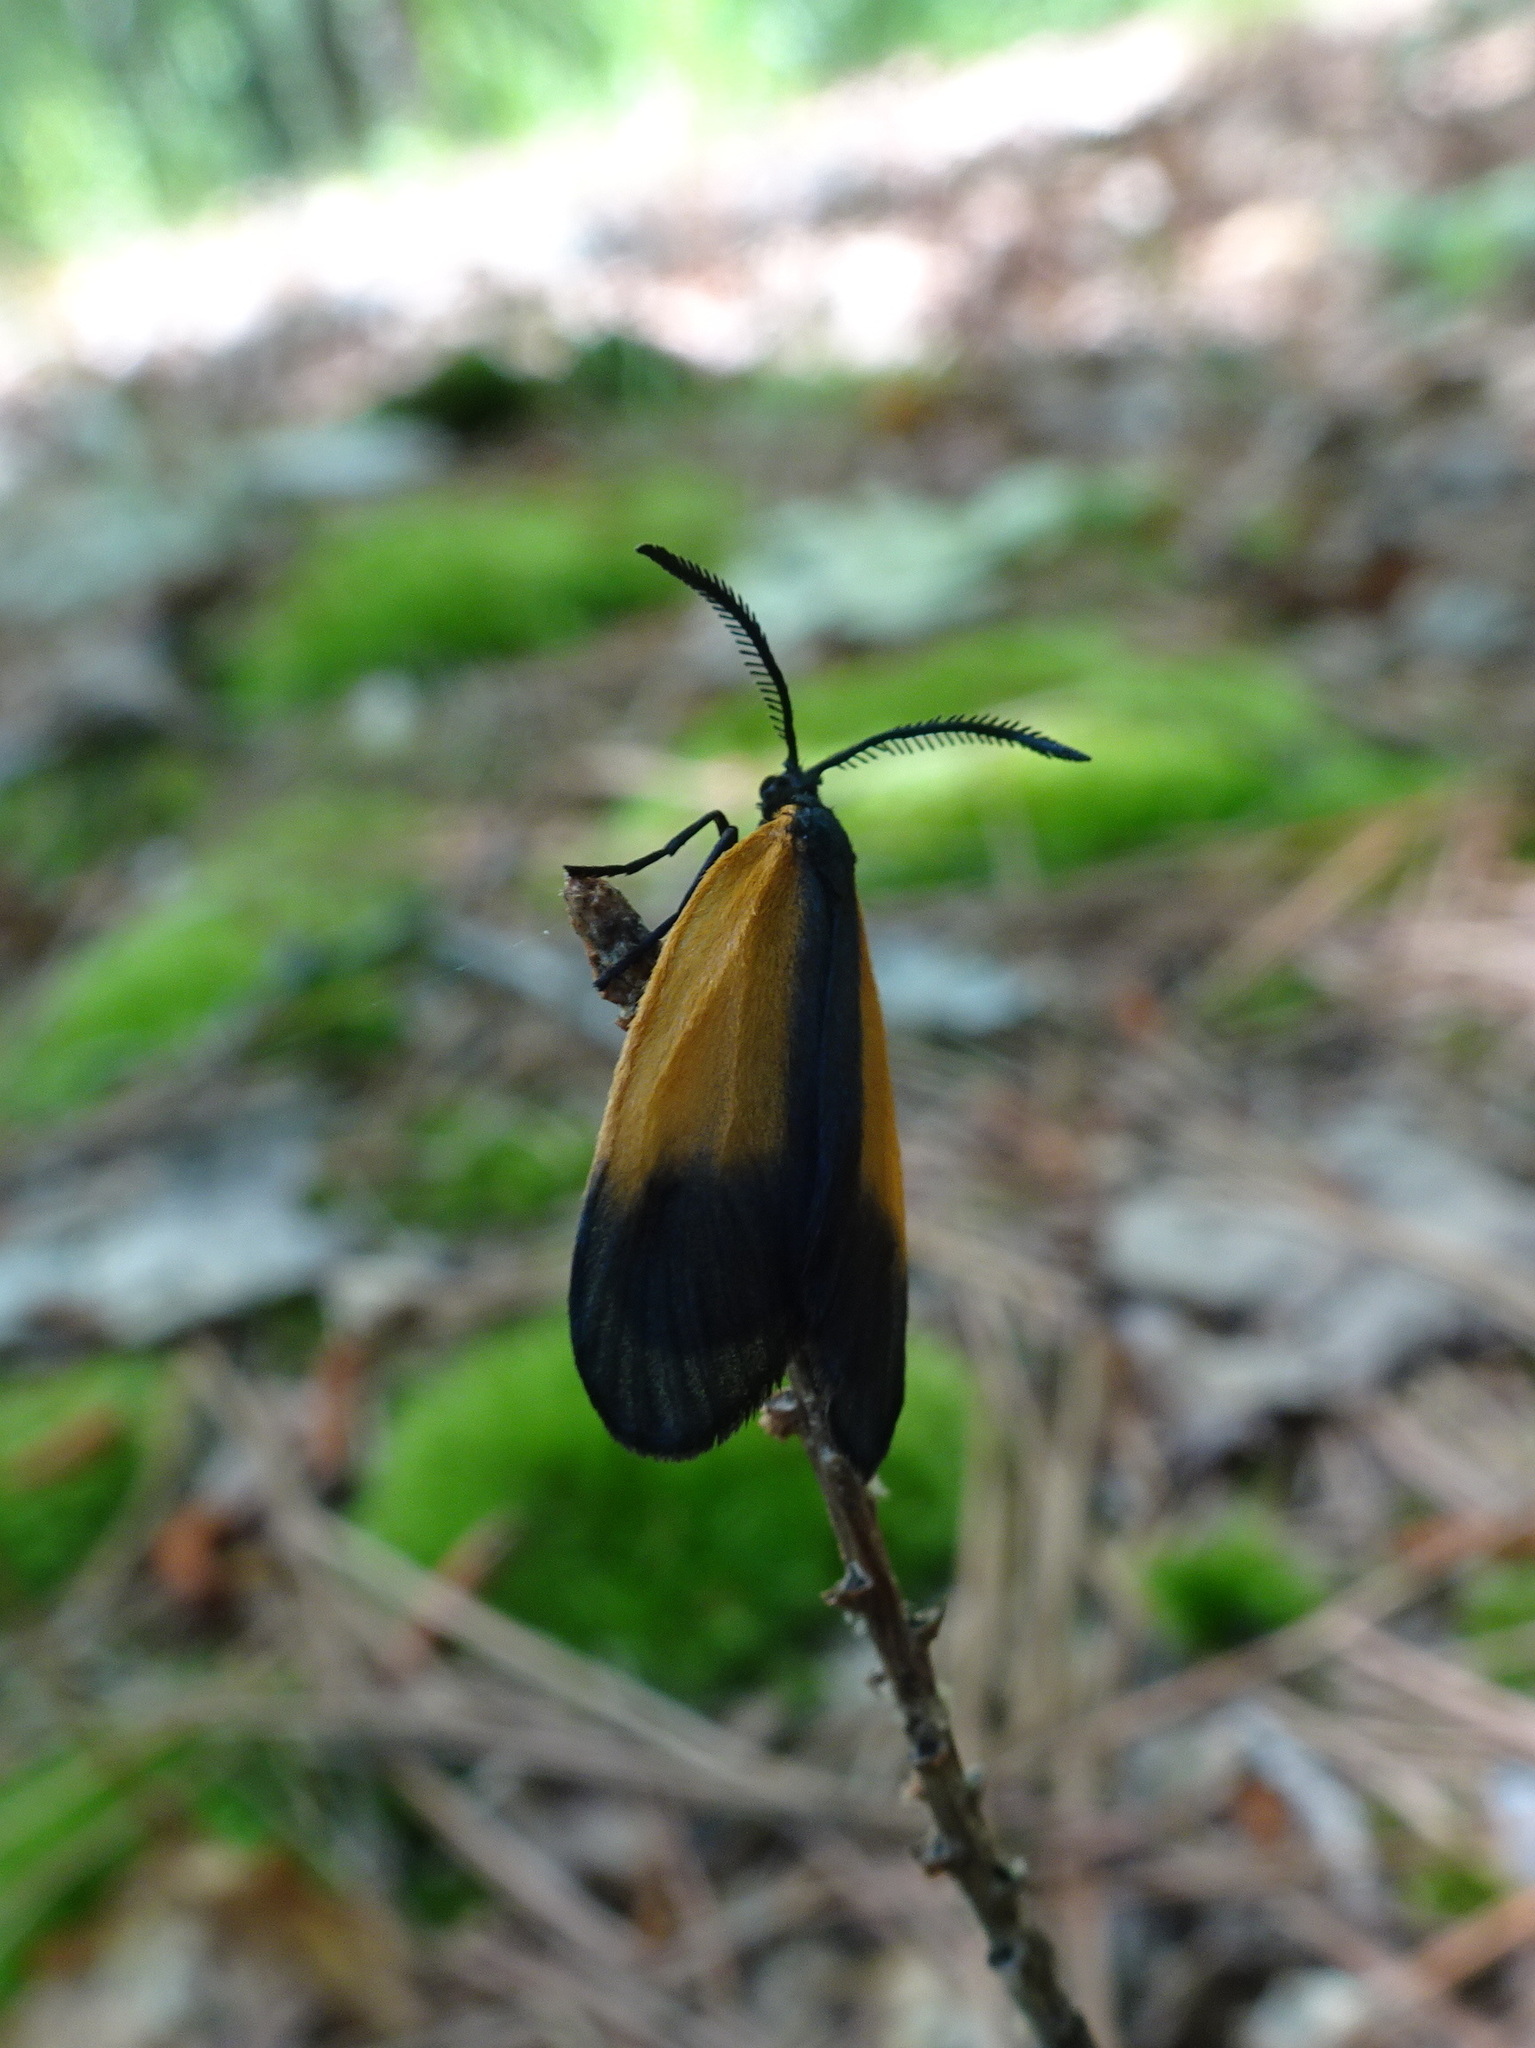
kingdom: Animalia
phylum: Arthropoda
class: Insecta
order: Lepidoptera
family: Zygaenidae
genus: Malthaca
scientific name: Malthaca dimidiata
